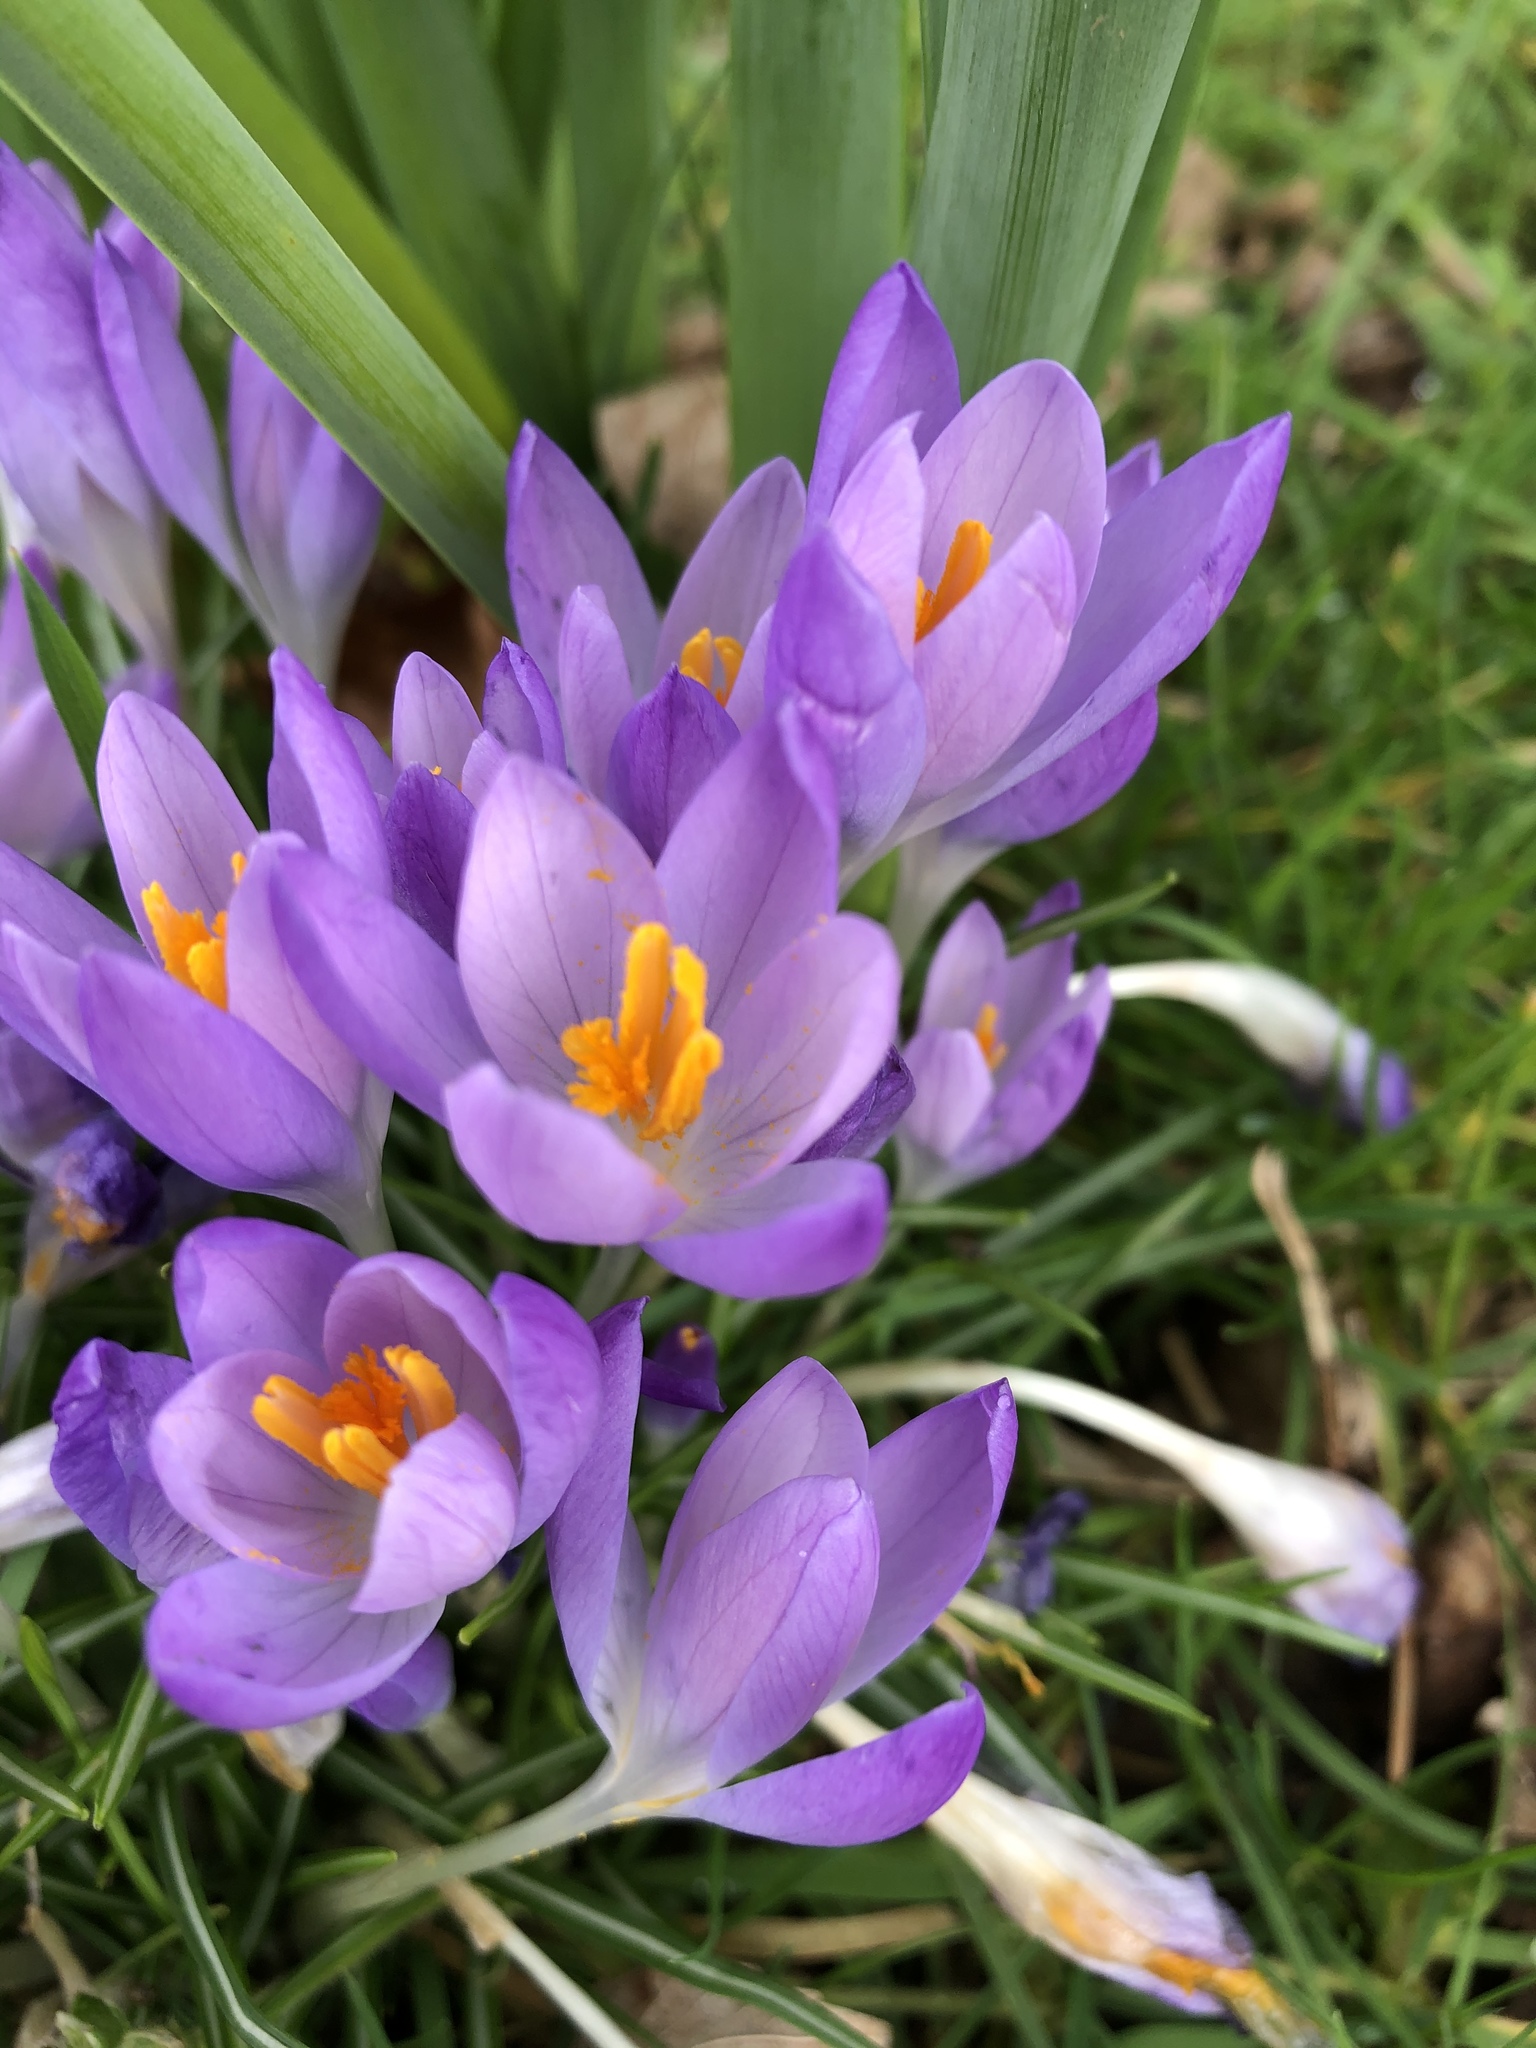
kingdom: Plantae
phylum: Tracheophyta
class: Liliopsida
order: Asparagales
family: Iridaceae
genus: Crocus
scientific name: Crocus tommasinianus
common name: Early crocus
